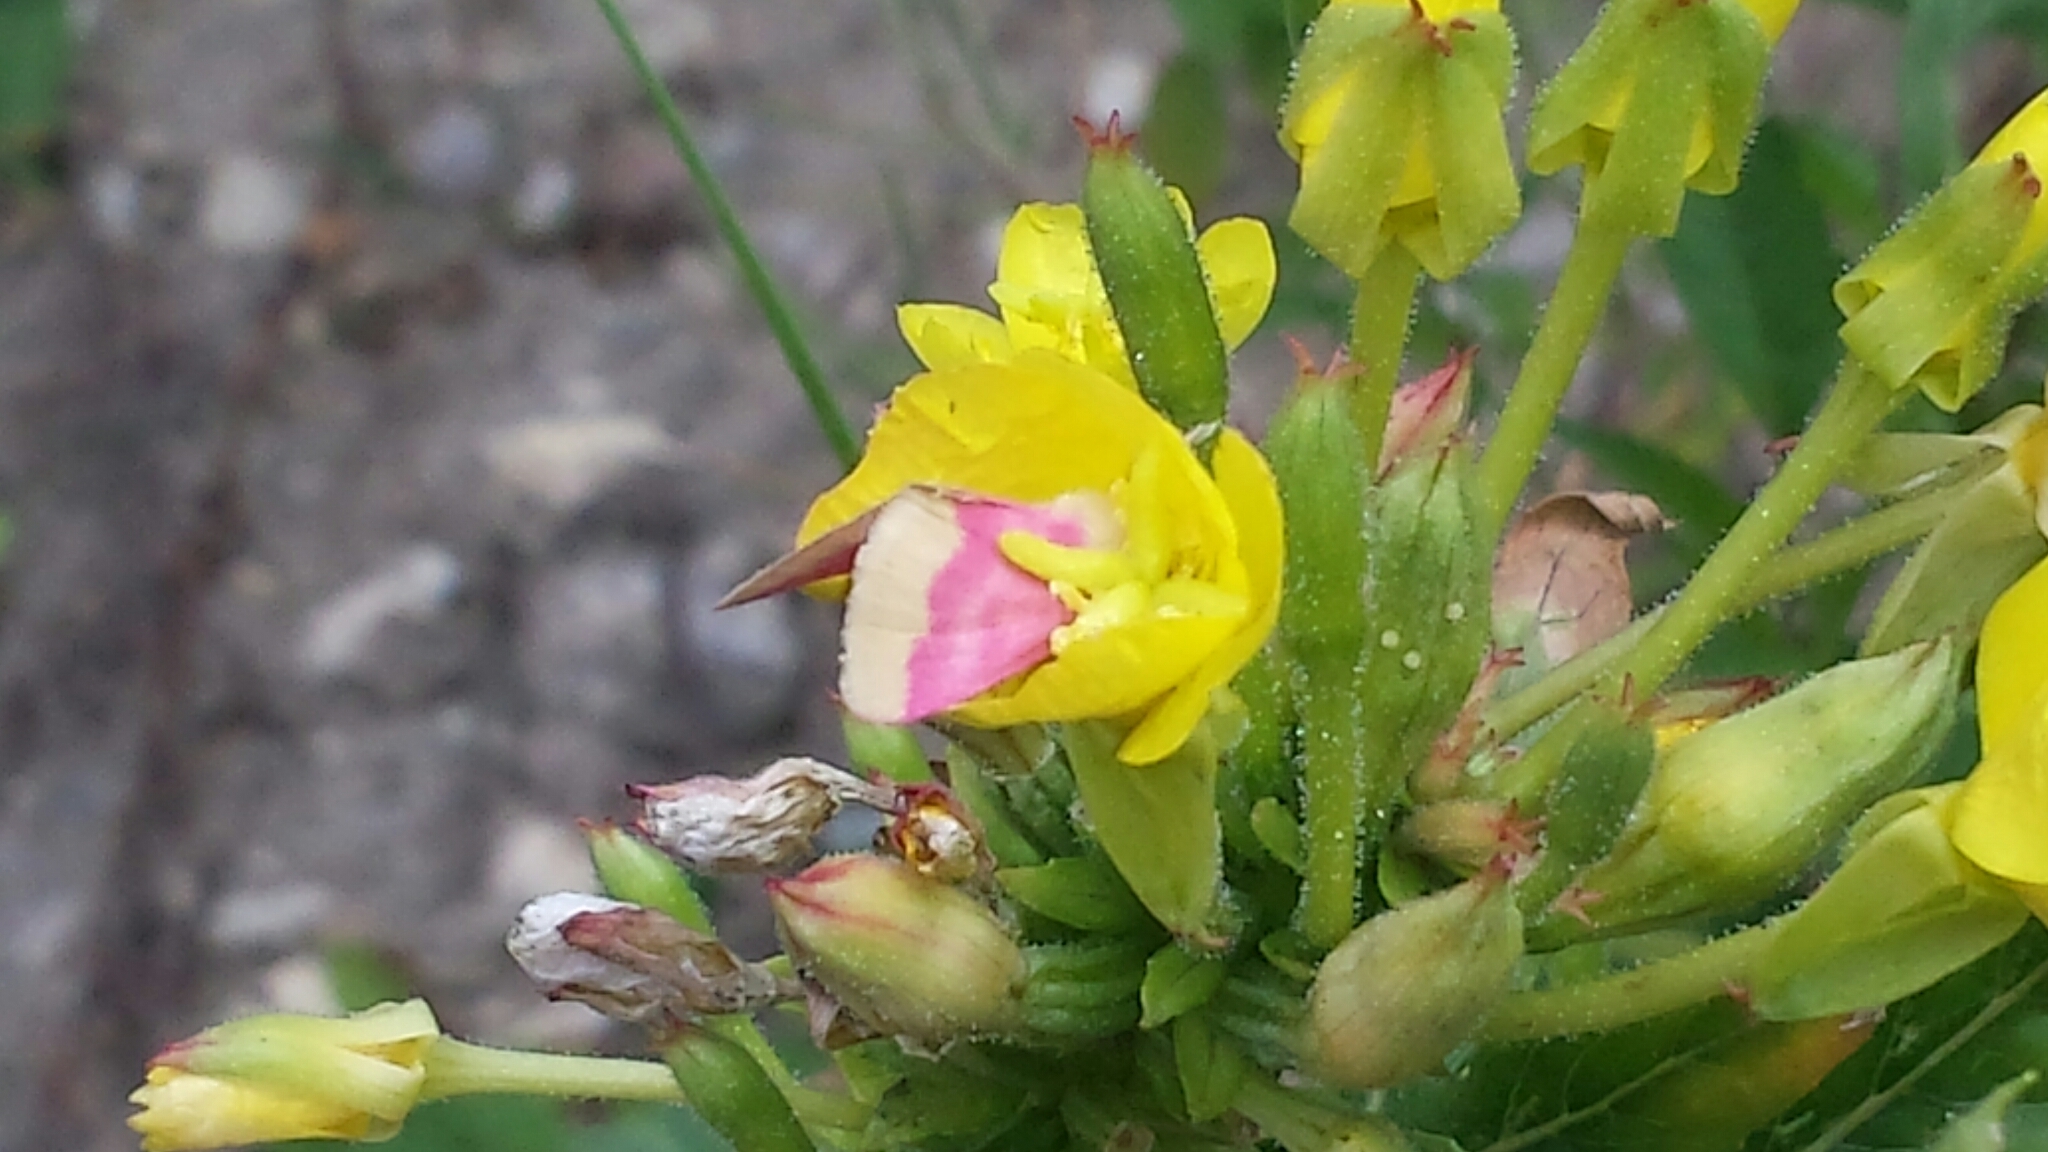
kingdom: Animalia
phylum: Arthropoda
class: Insecta
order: Lepidoptera
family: Noctuidae
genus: Schinia
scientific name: Schinia florida
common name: Primrose moth
